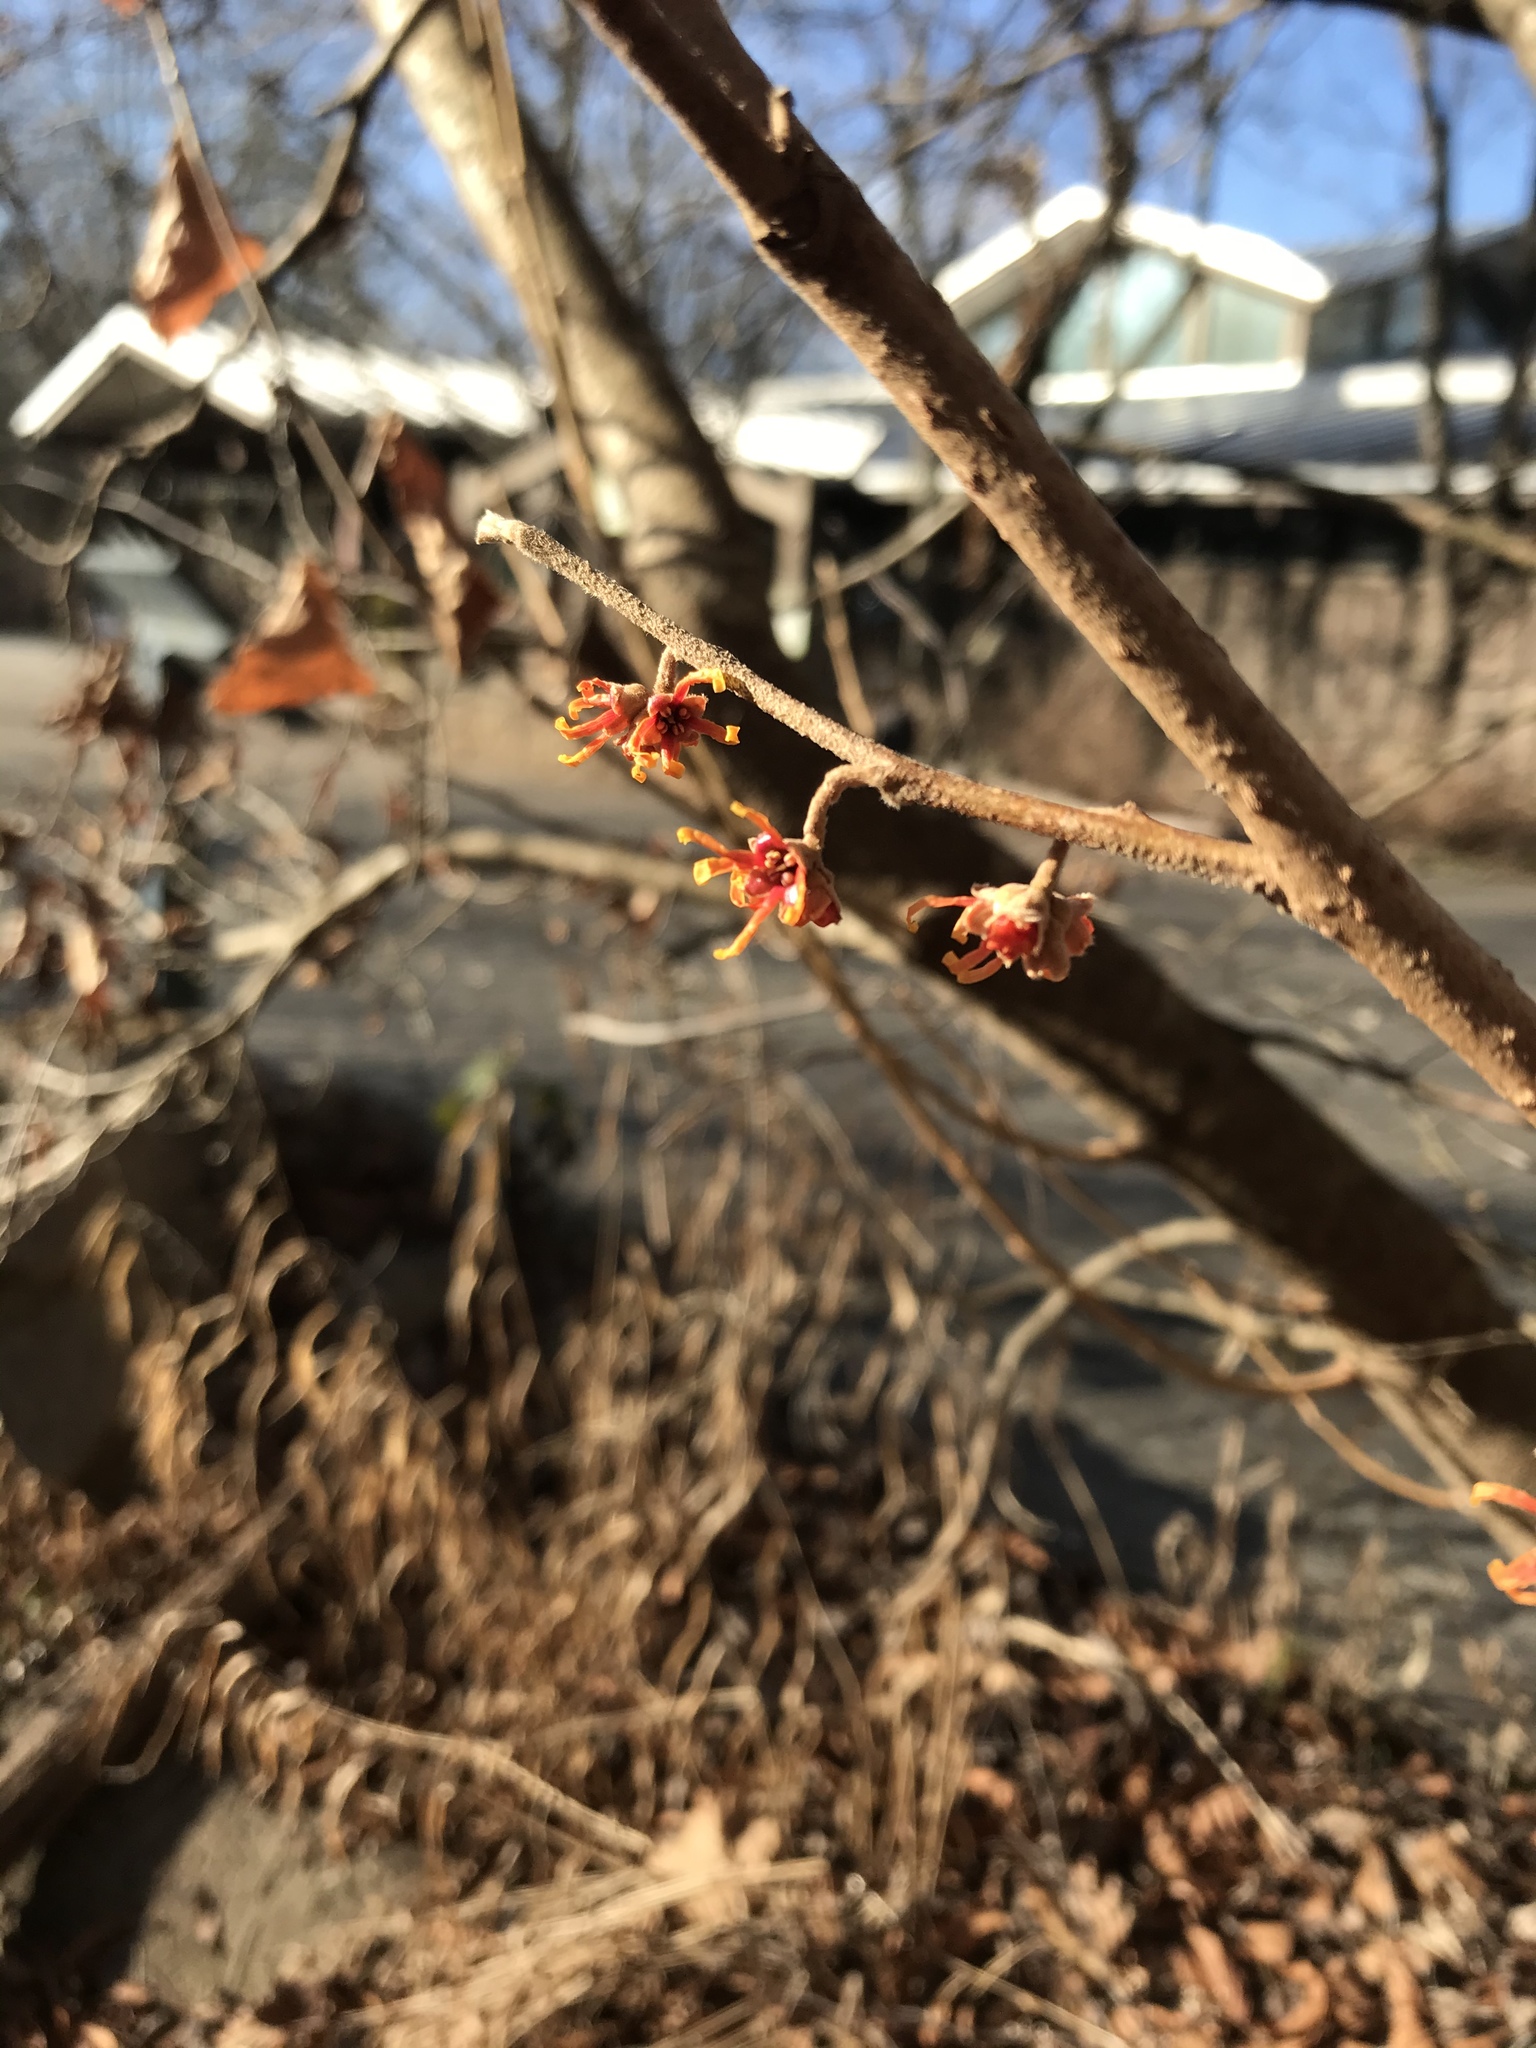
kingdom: Plantae
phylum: Tracheophyta
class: Magnoliopsida
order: Saxifragales
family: Hamamelidaceae
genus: Hamamelis
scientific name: Hamamelis vernalis
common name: Ozark witch-hazel
